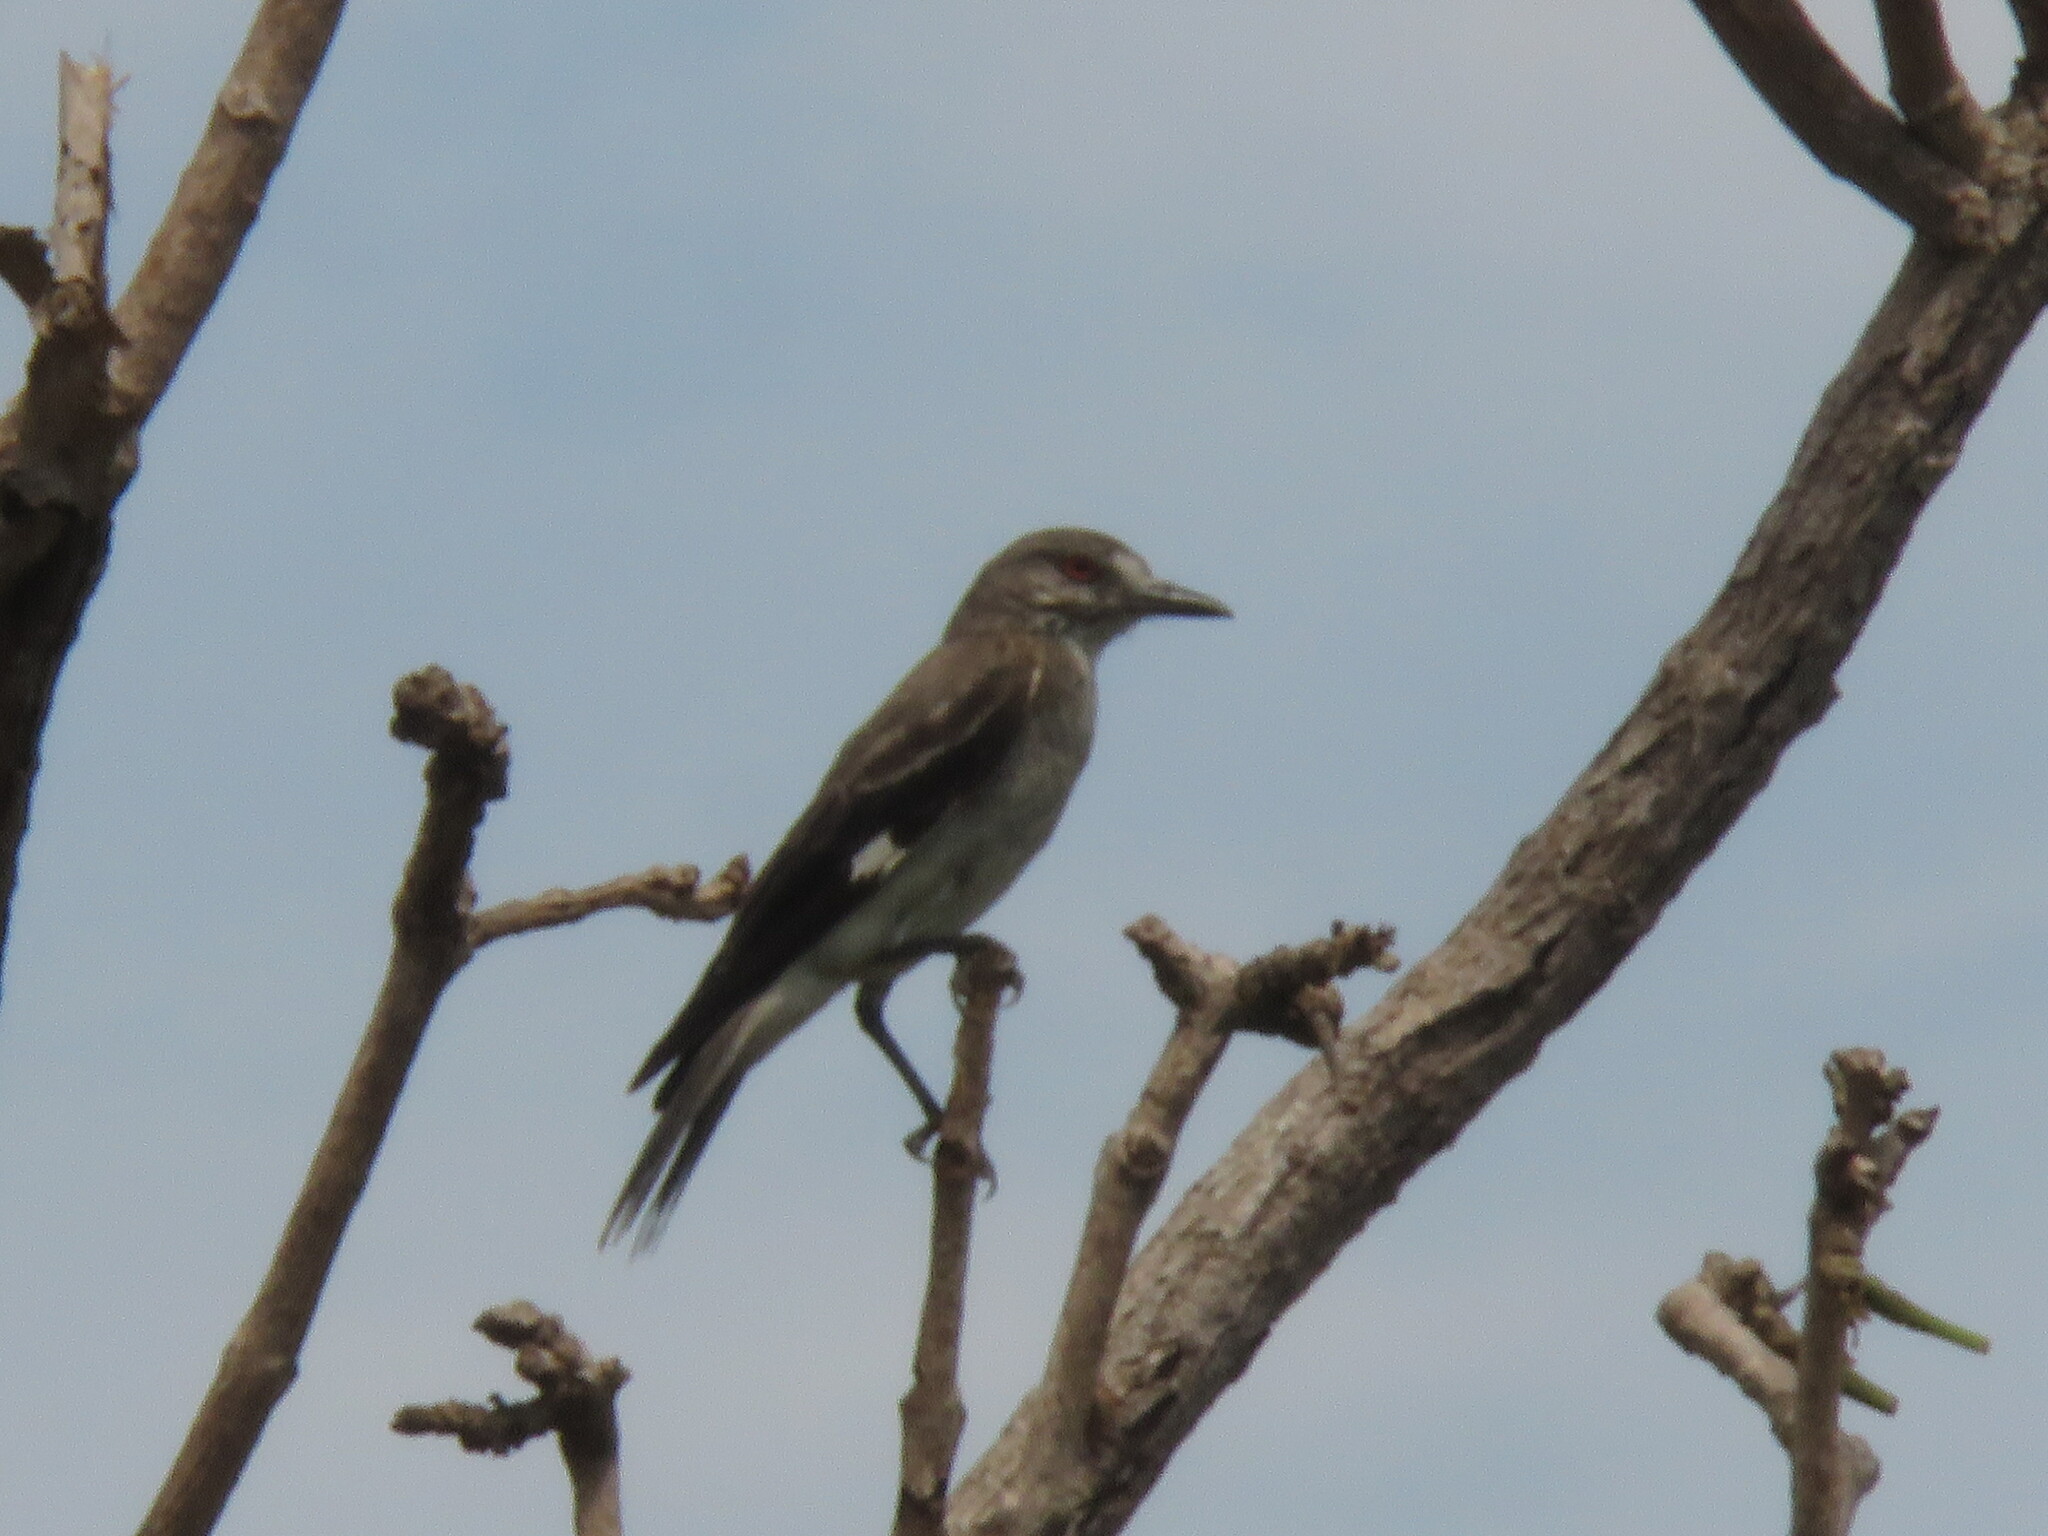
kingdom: Animalia
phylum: Chordata
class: Aves
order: Passeriformes
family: Tyrannidae
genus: Xolmis
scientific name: Xolmis cinereus
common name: Grey monjita
